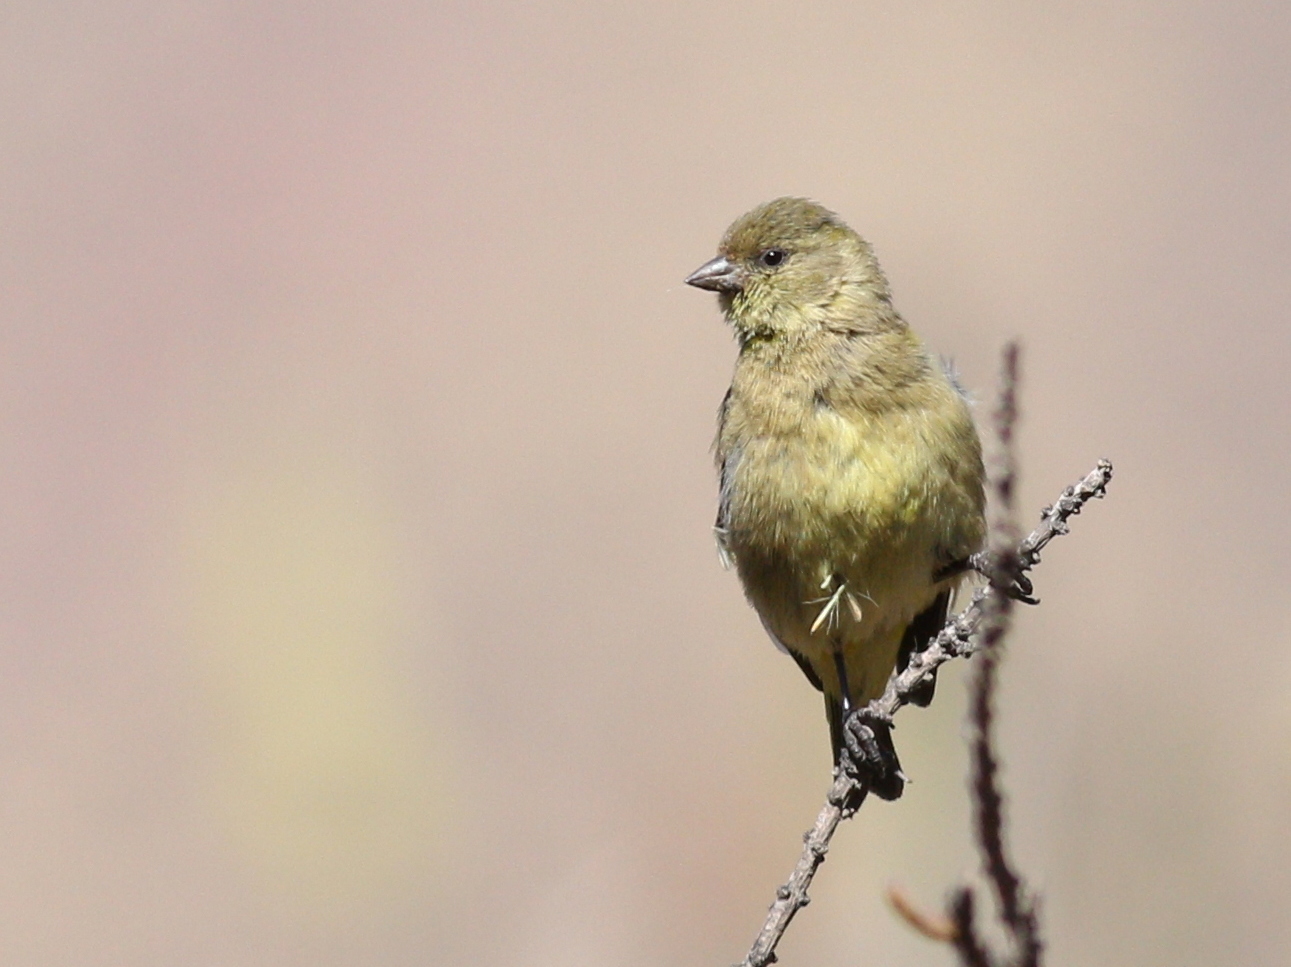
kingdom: Animalia
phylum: Chordata
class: Aves
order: Passeriformes
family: Fringillidae
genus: Spinus
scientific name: Spinus magellanicus
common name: Hooded siskin
